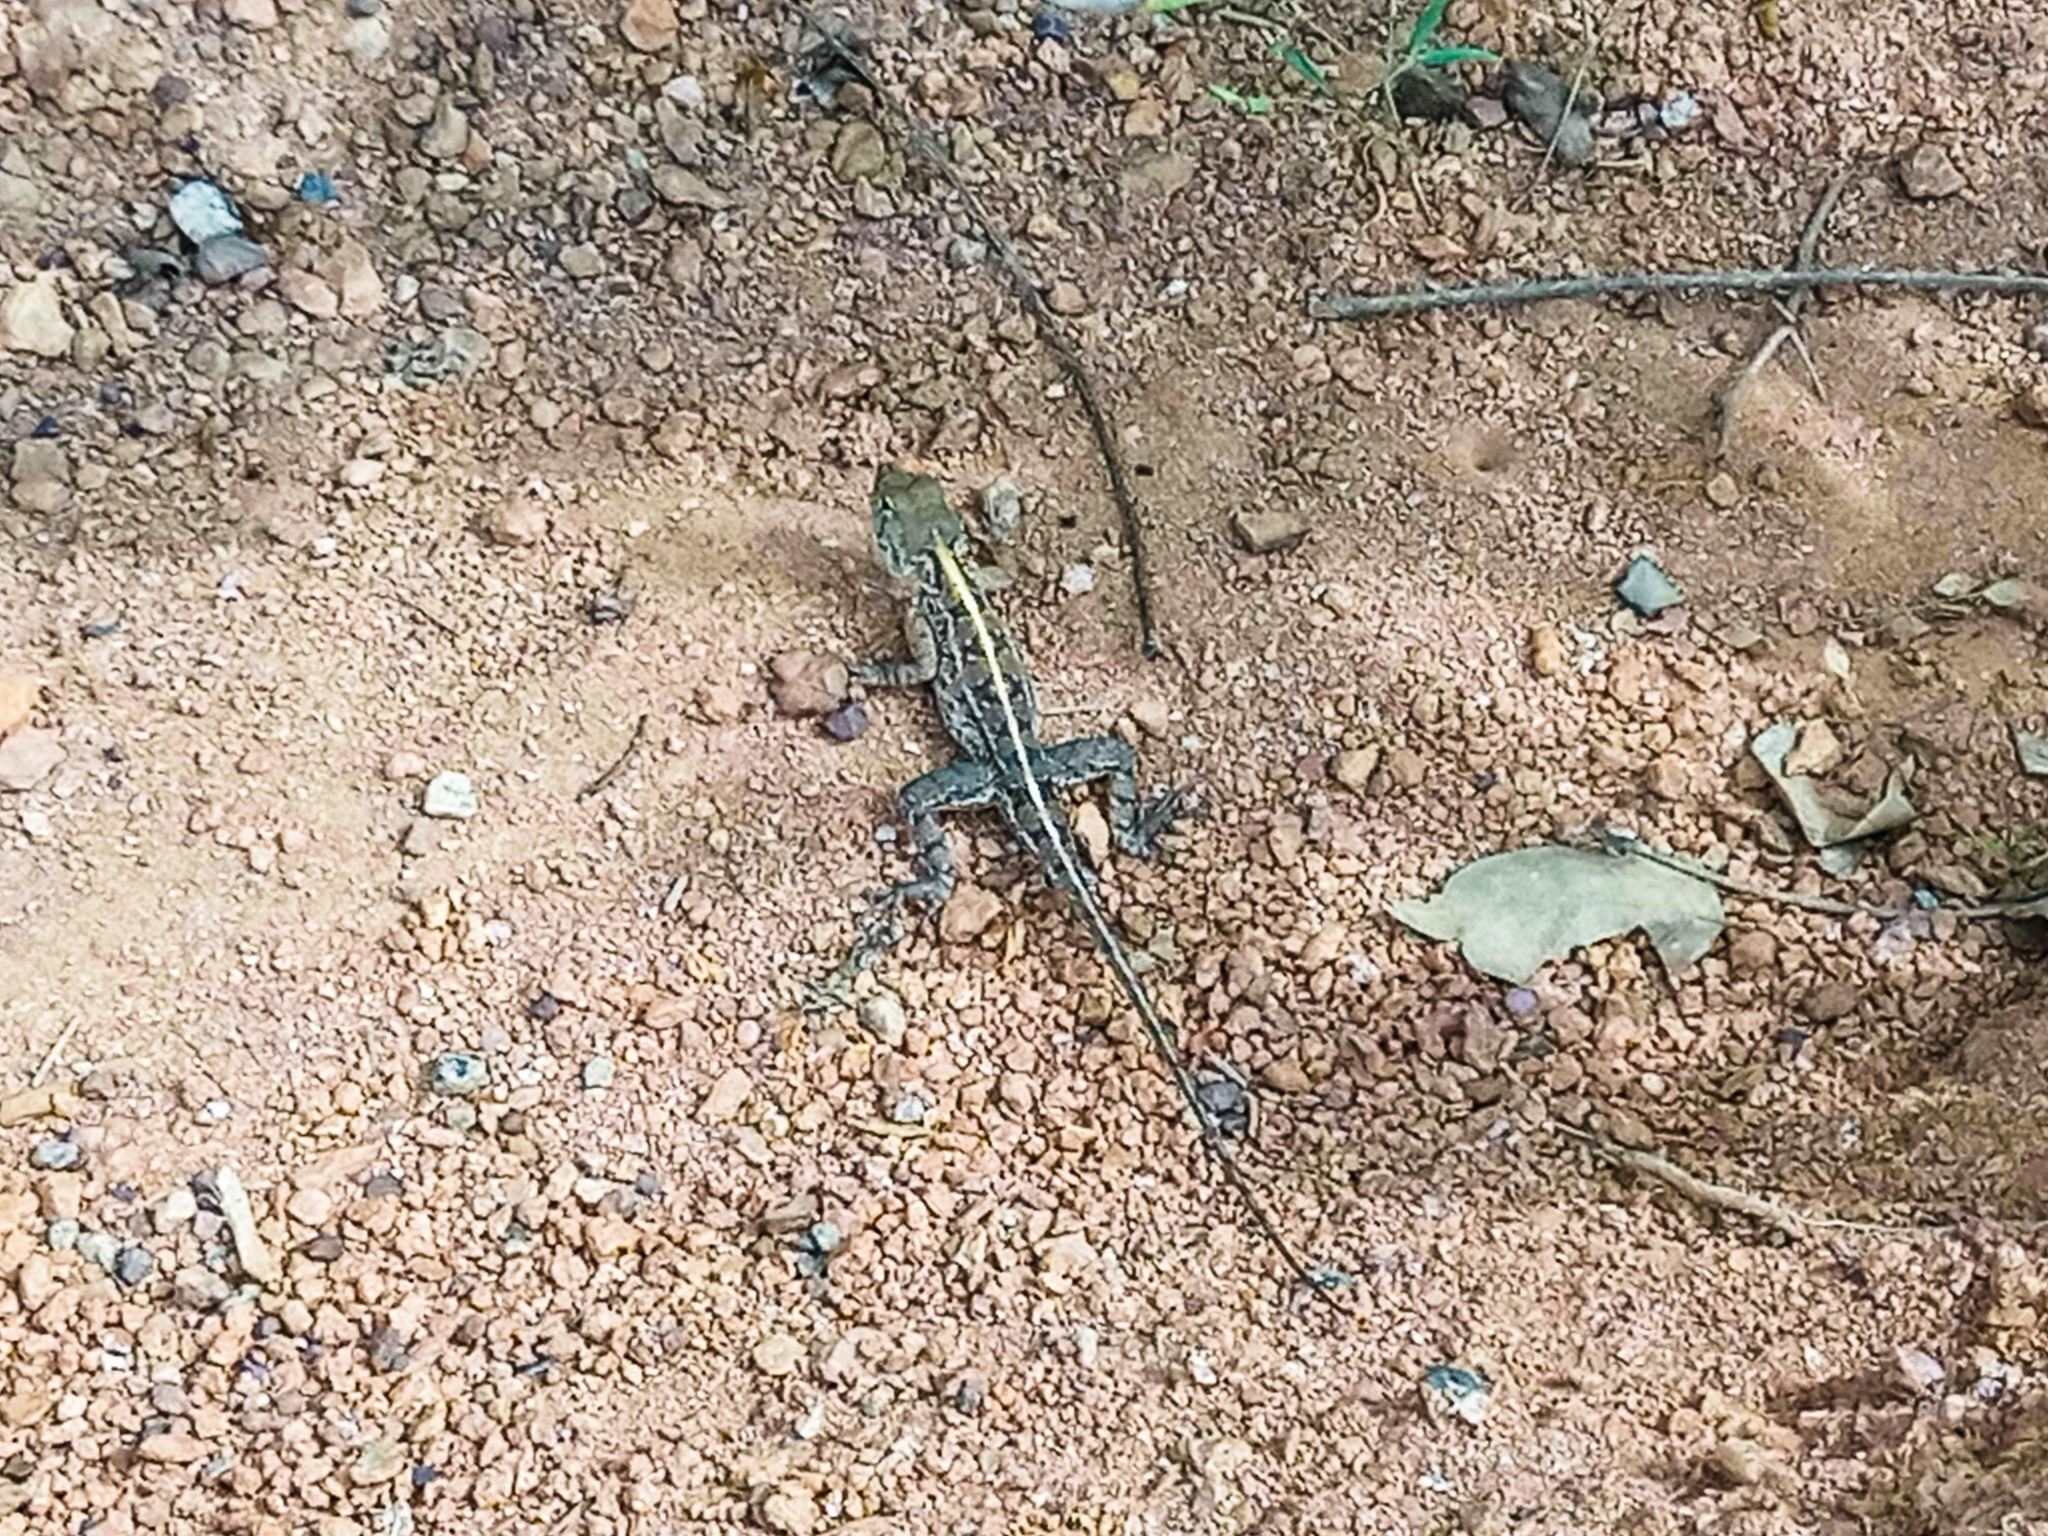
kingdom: Animalia
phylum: Chordata
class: Squamata
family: Agamidae
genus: Agama
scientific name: Agama sankaranica
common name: Senegal agama
